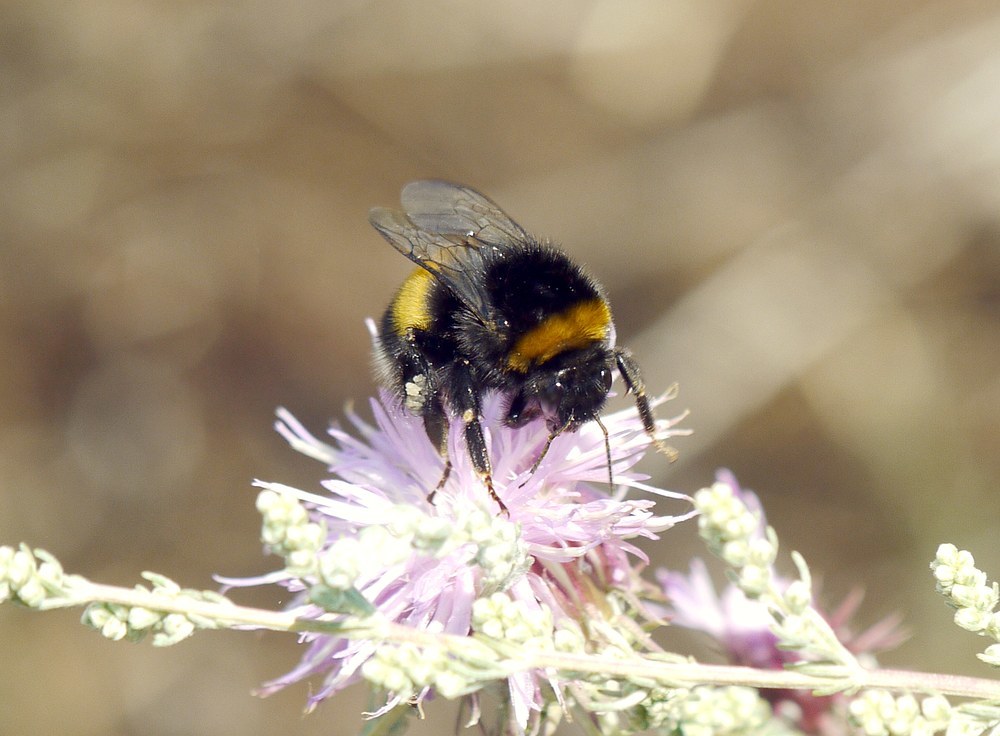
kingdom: Animalia
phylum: Arthropoda
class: Insecta
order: Hymenoptera
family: Apidae
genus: Bombus
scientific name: Bombus
